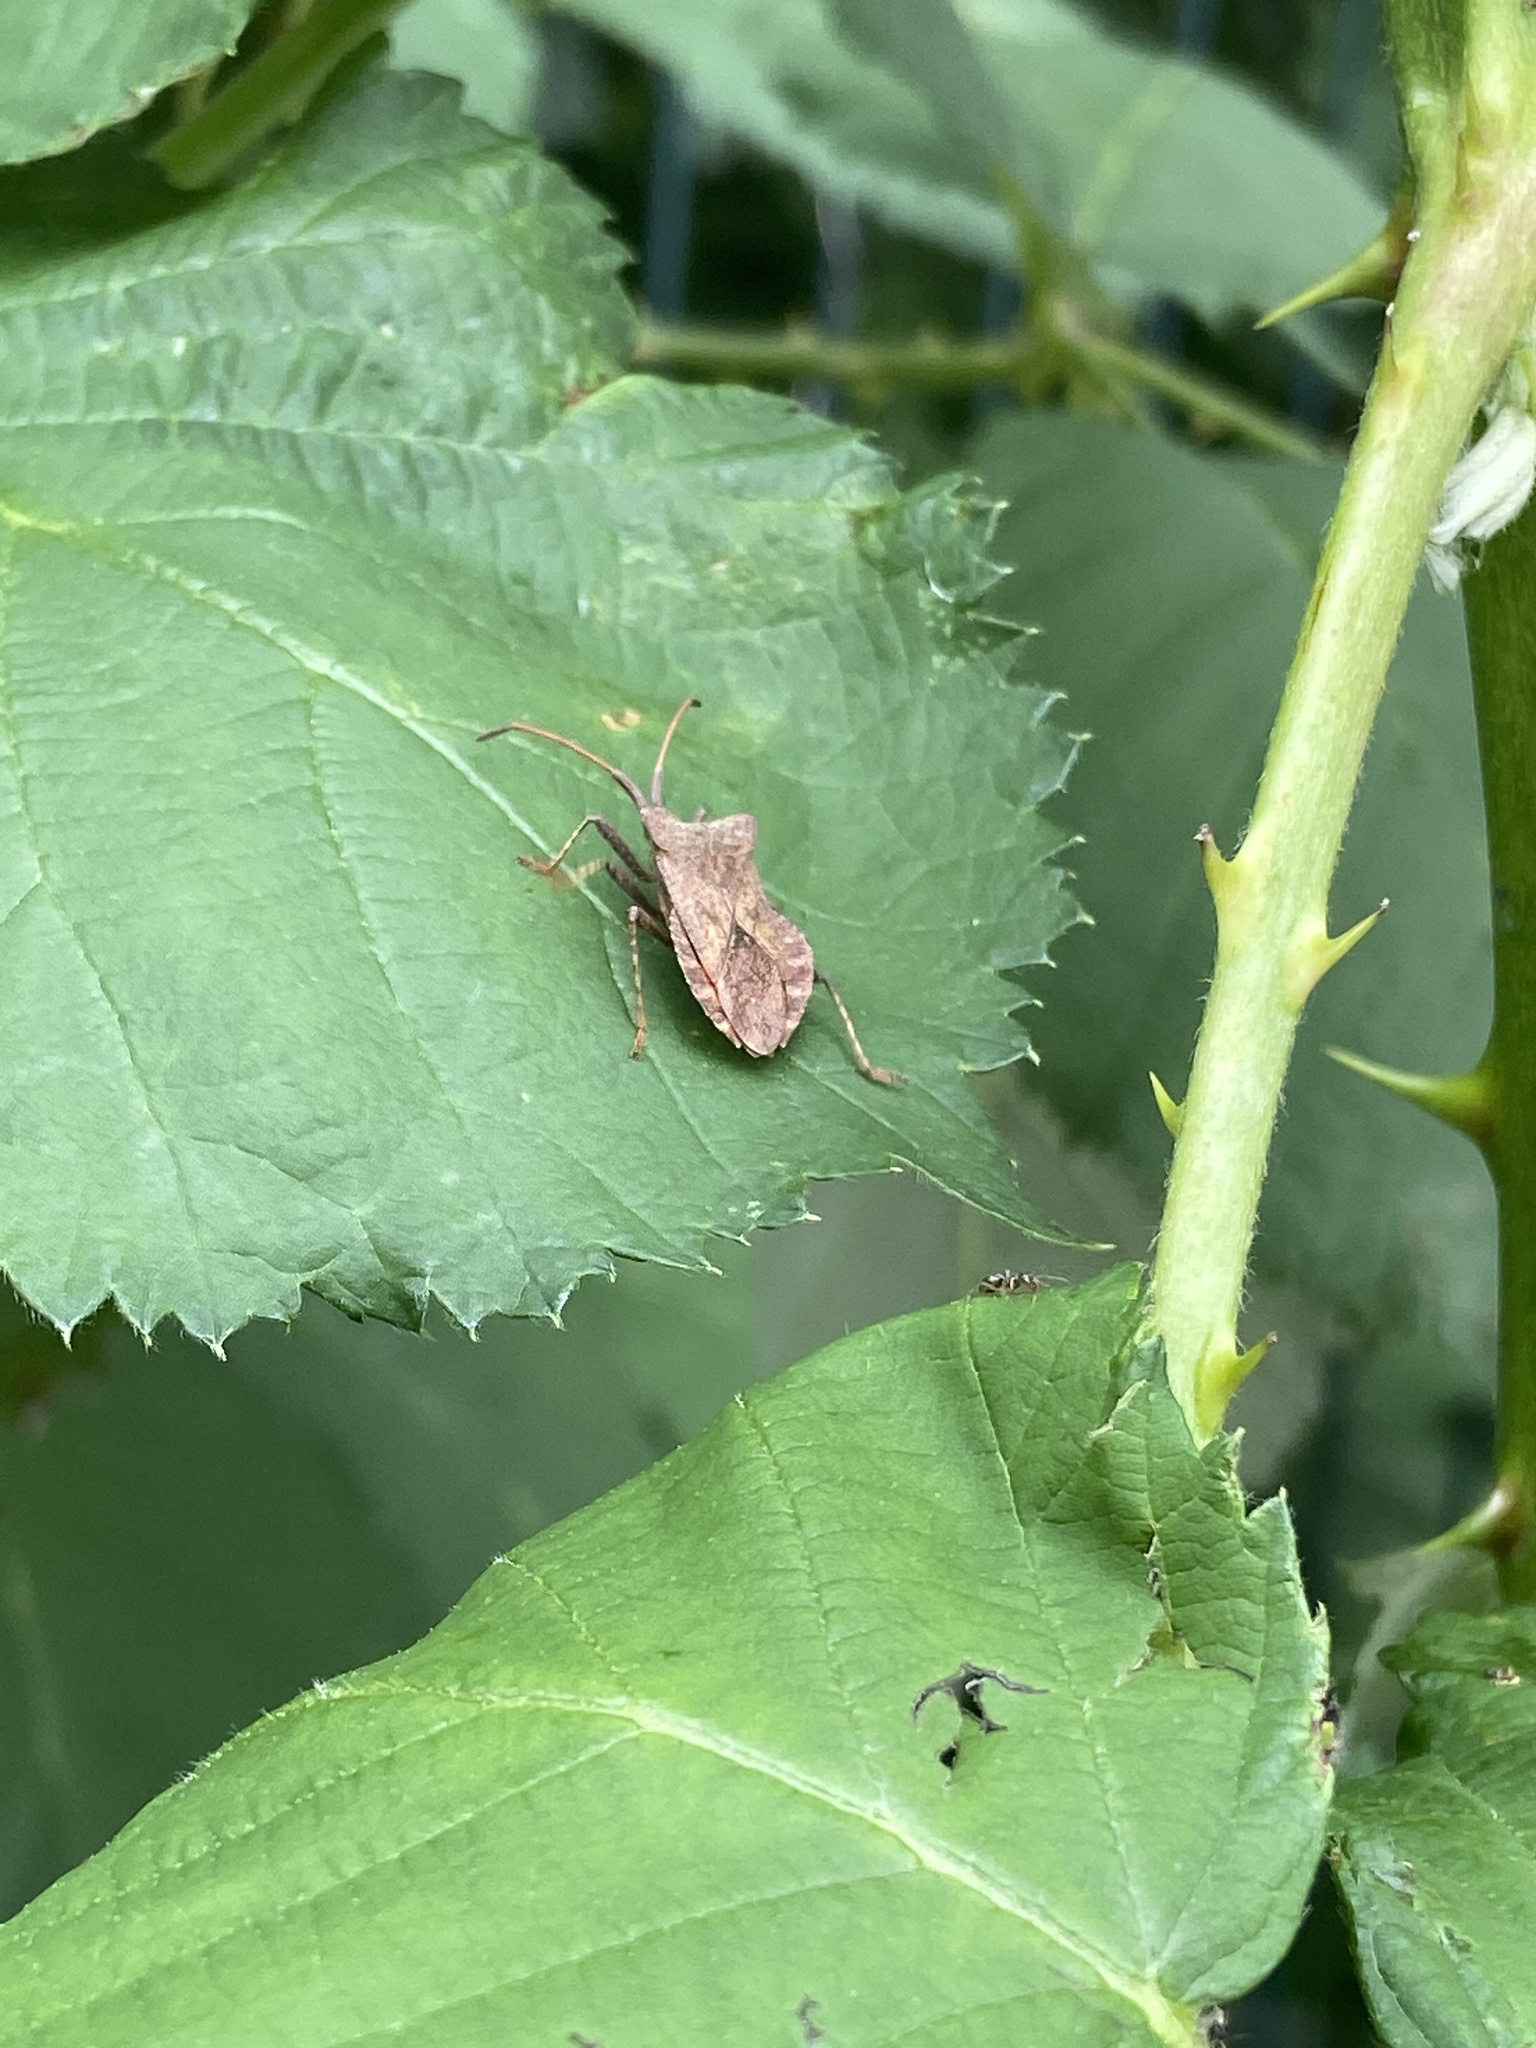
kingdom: Animalia
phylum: Arthropoda
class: Insecta
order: Hemiptera
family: Coreidae
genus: Coreus
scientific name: Coreus marginatus
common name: Dock bug
